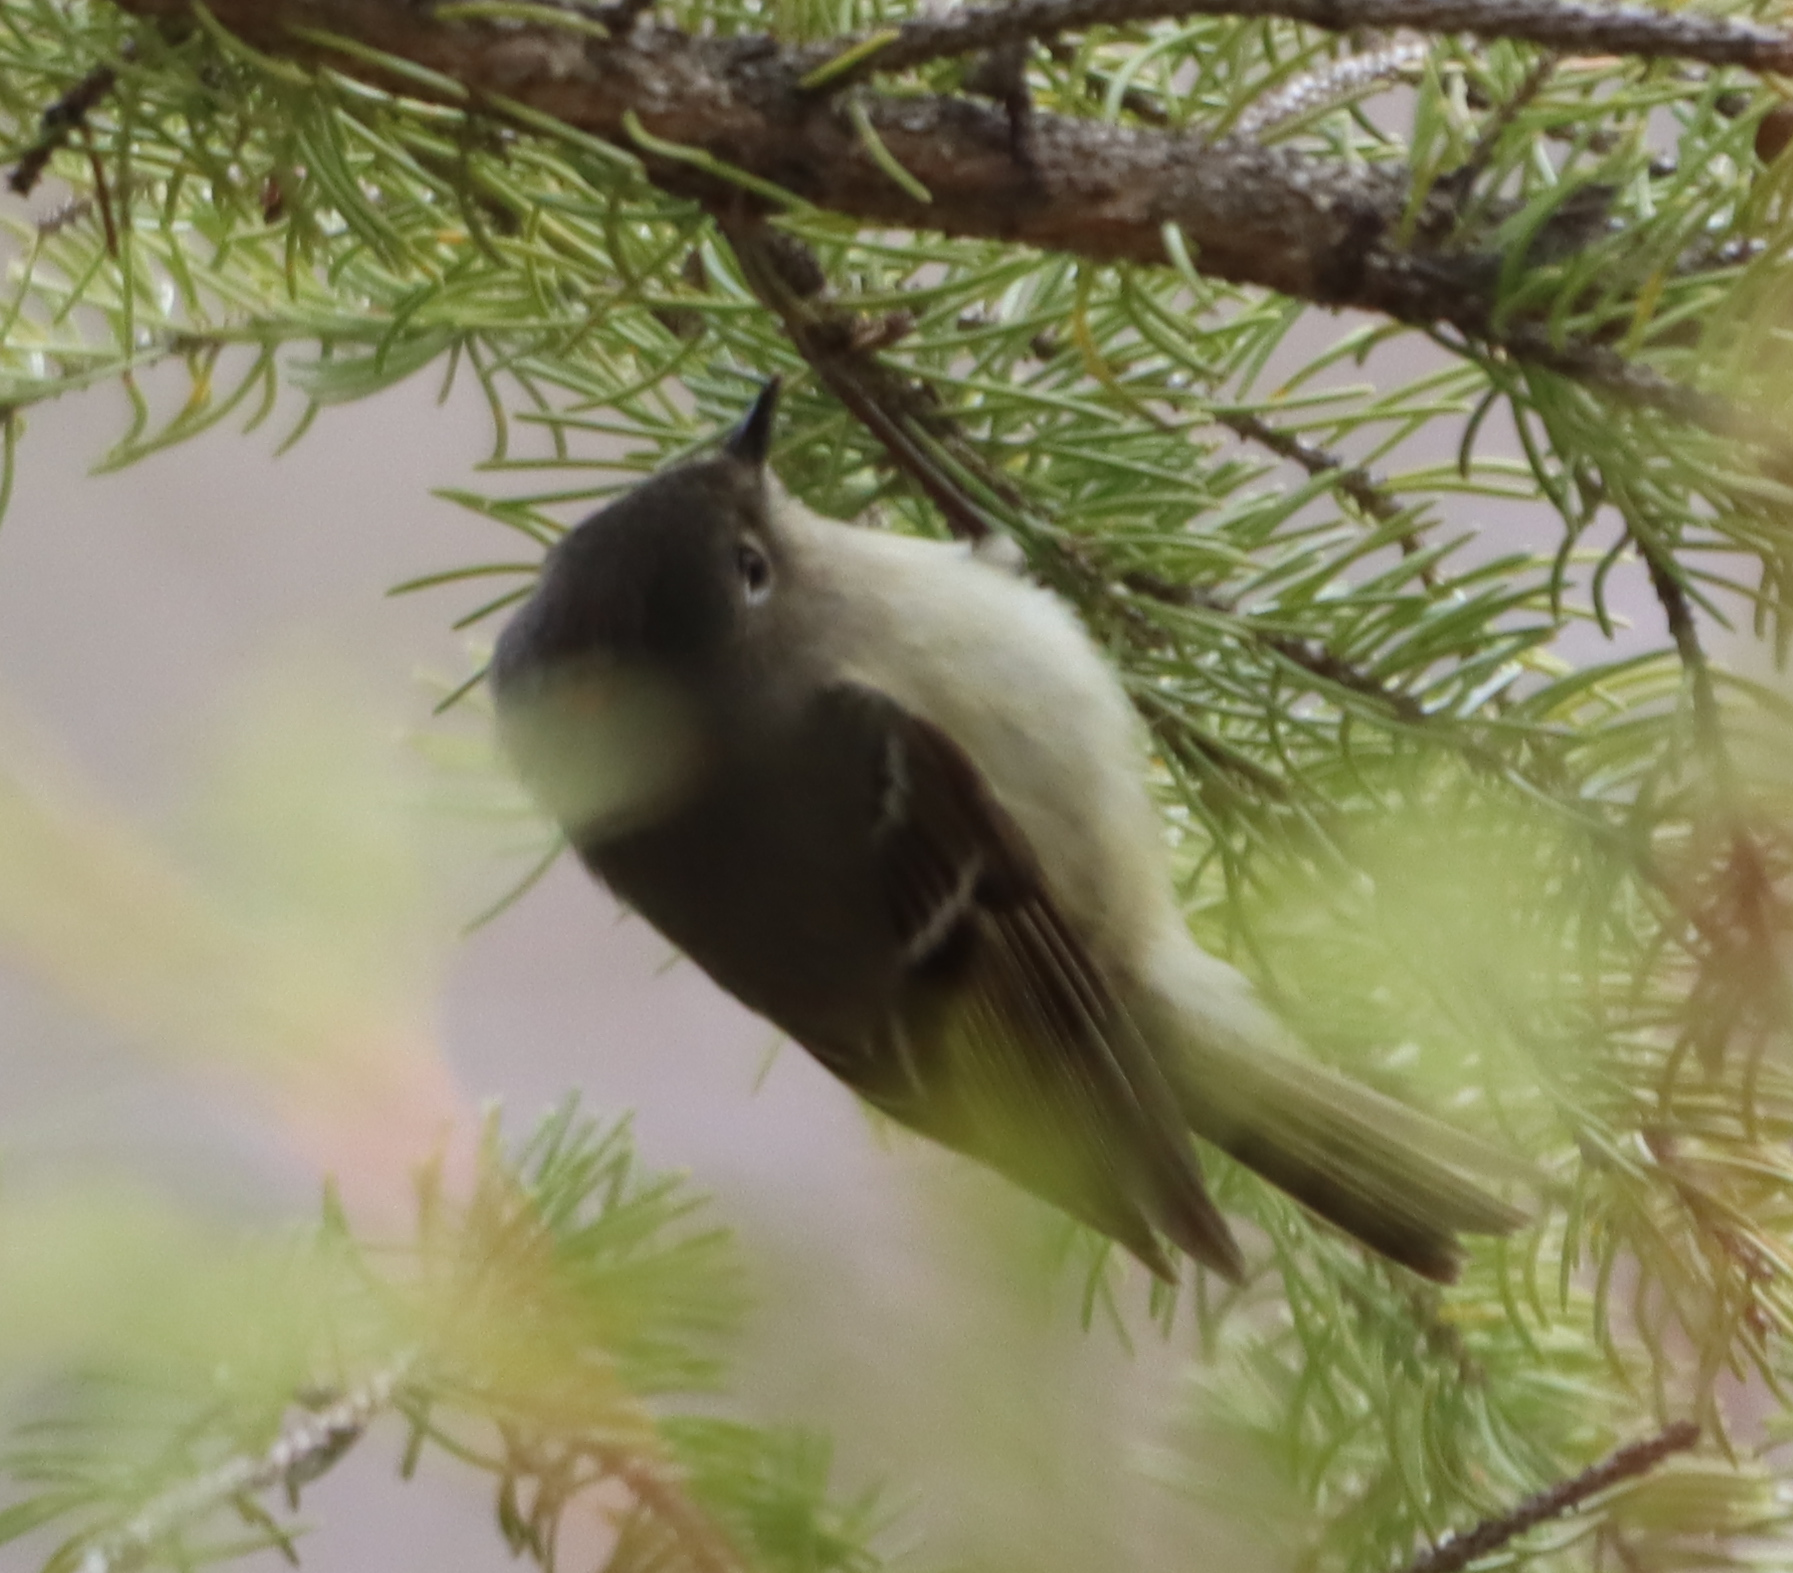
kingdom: Animalia
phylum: Chordata
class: Aves
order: Passeriformes
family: Regulidae
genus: Regulus
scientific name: Regulus calendula
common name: Ruby-crowned kinglet
